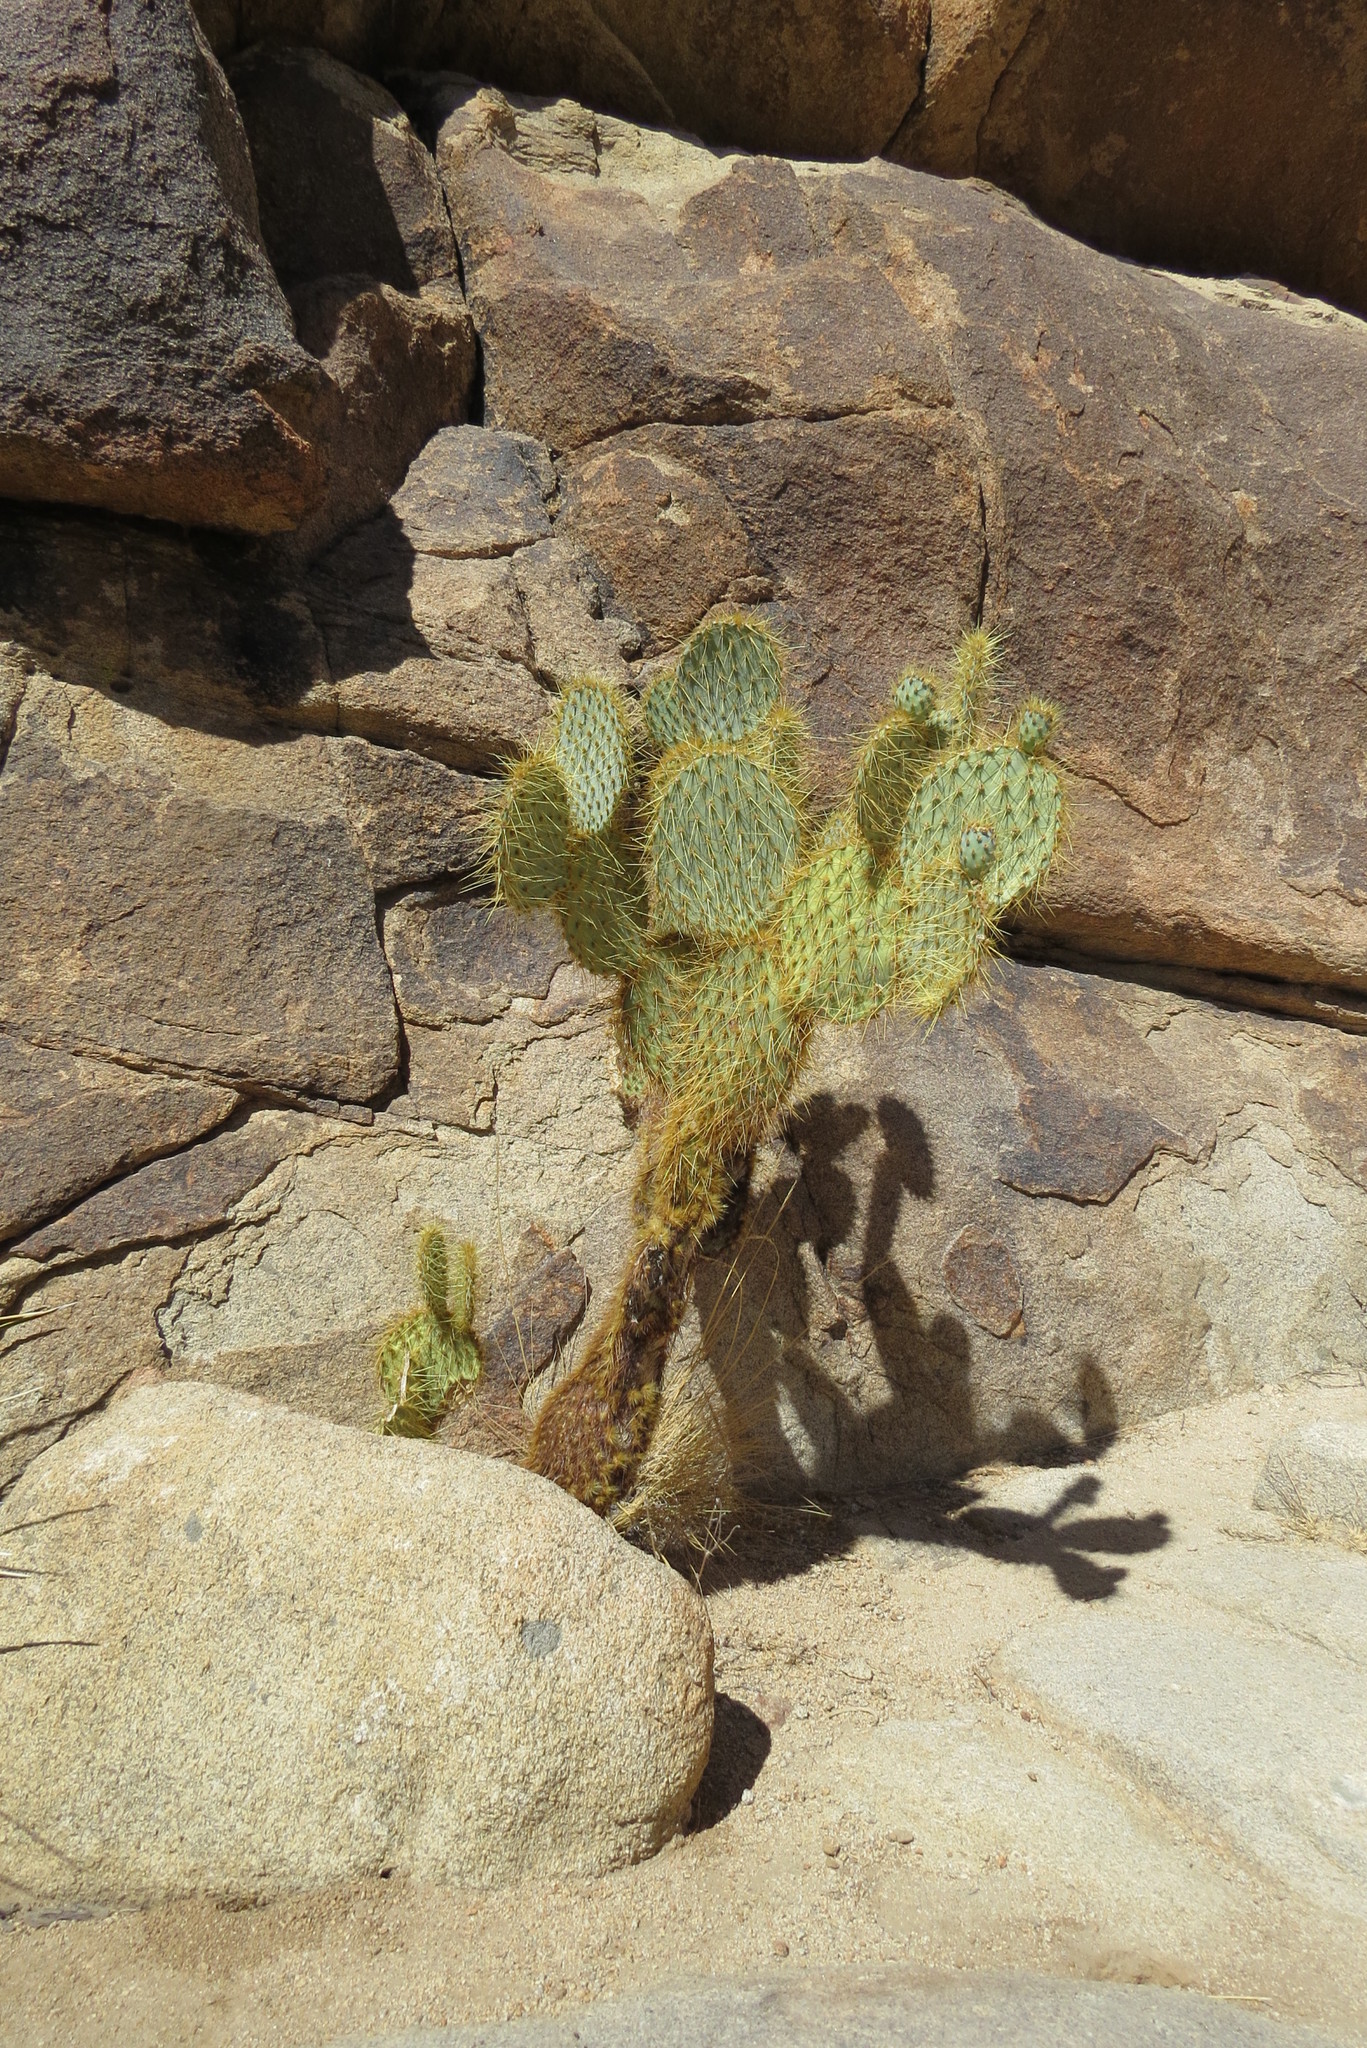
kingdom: Plantae
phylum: Tracheophyta
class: Magnoliopsida
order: Caryophyllales
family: Cactaceae
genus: Opuntia
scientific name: Opuntia chlorotica
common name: Dollar-joint prickly-pear
